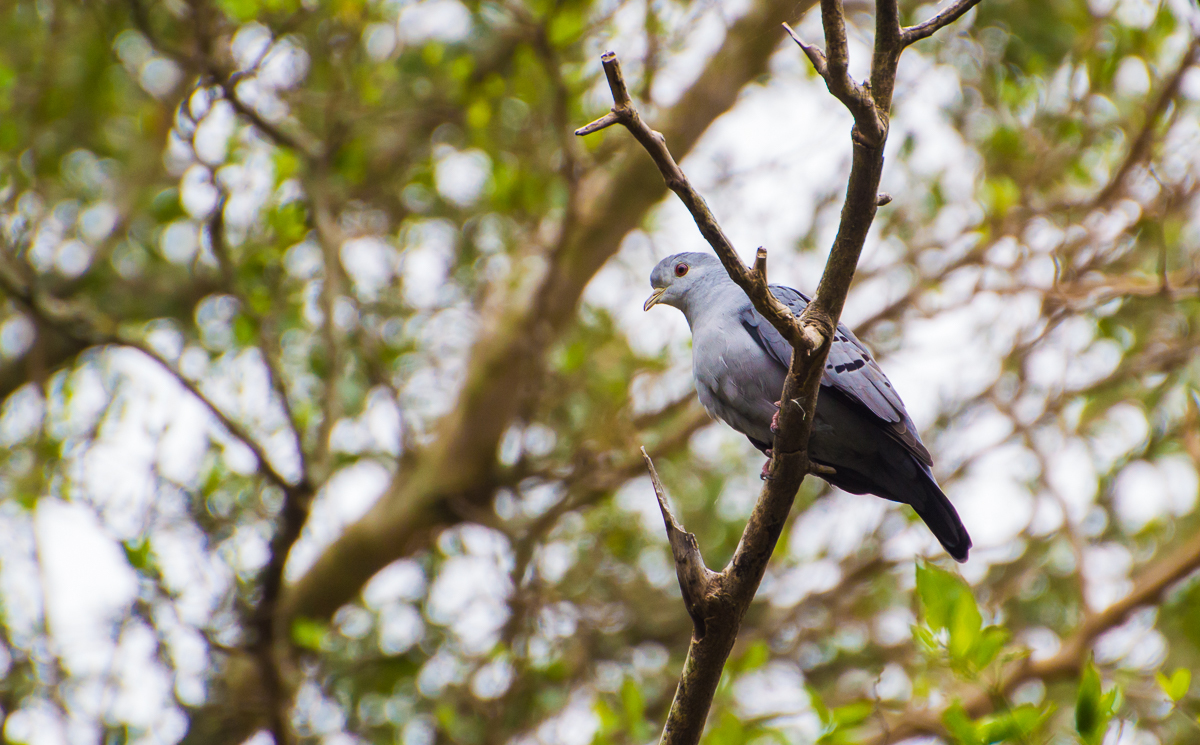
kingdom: Animalia
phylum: Chordata
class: Aves
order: Columbiformes
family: Columbidae
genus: Claravis
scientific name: Claravis pretiosa
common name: Blue ground-dove
